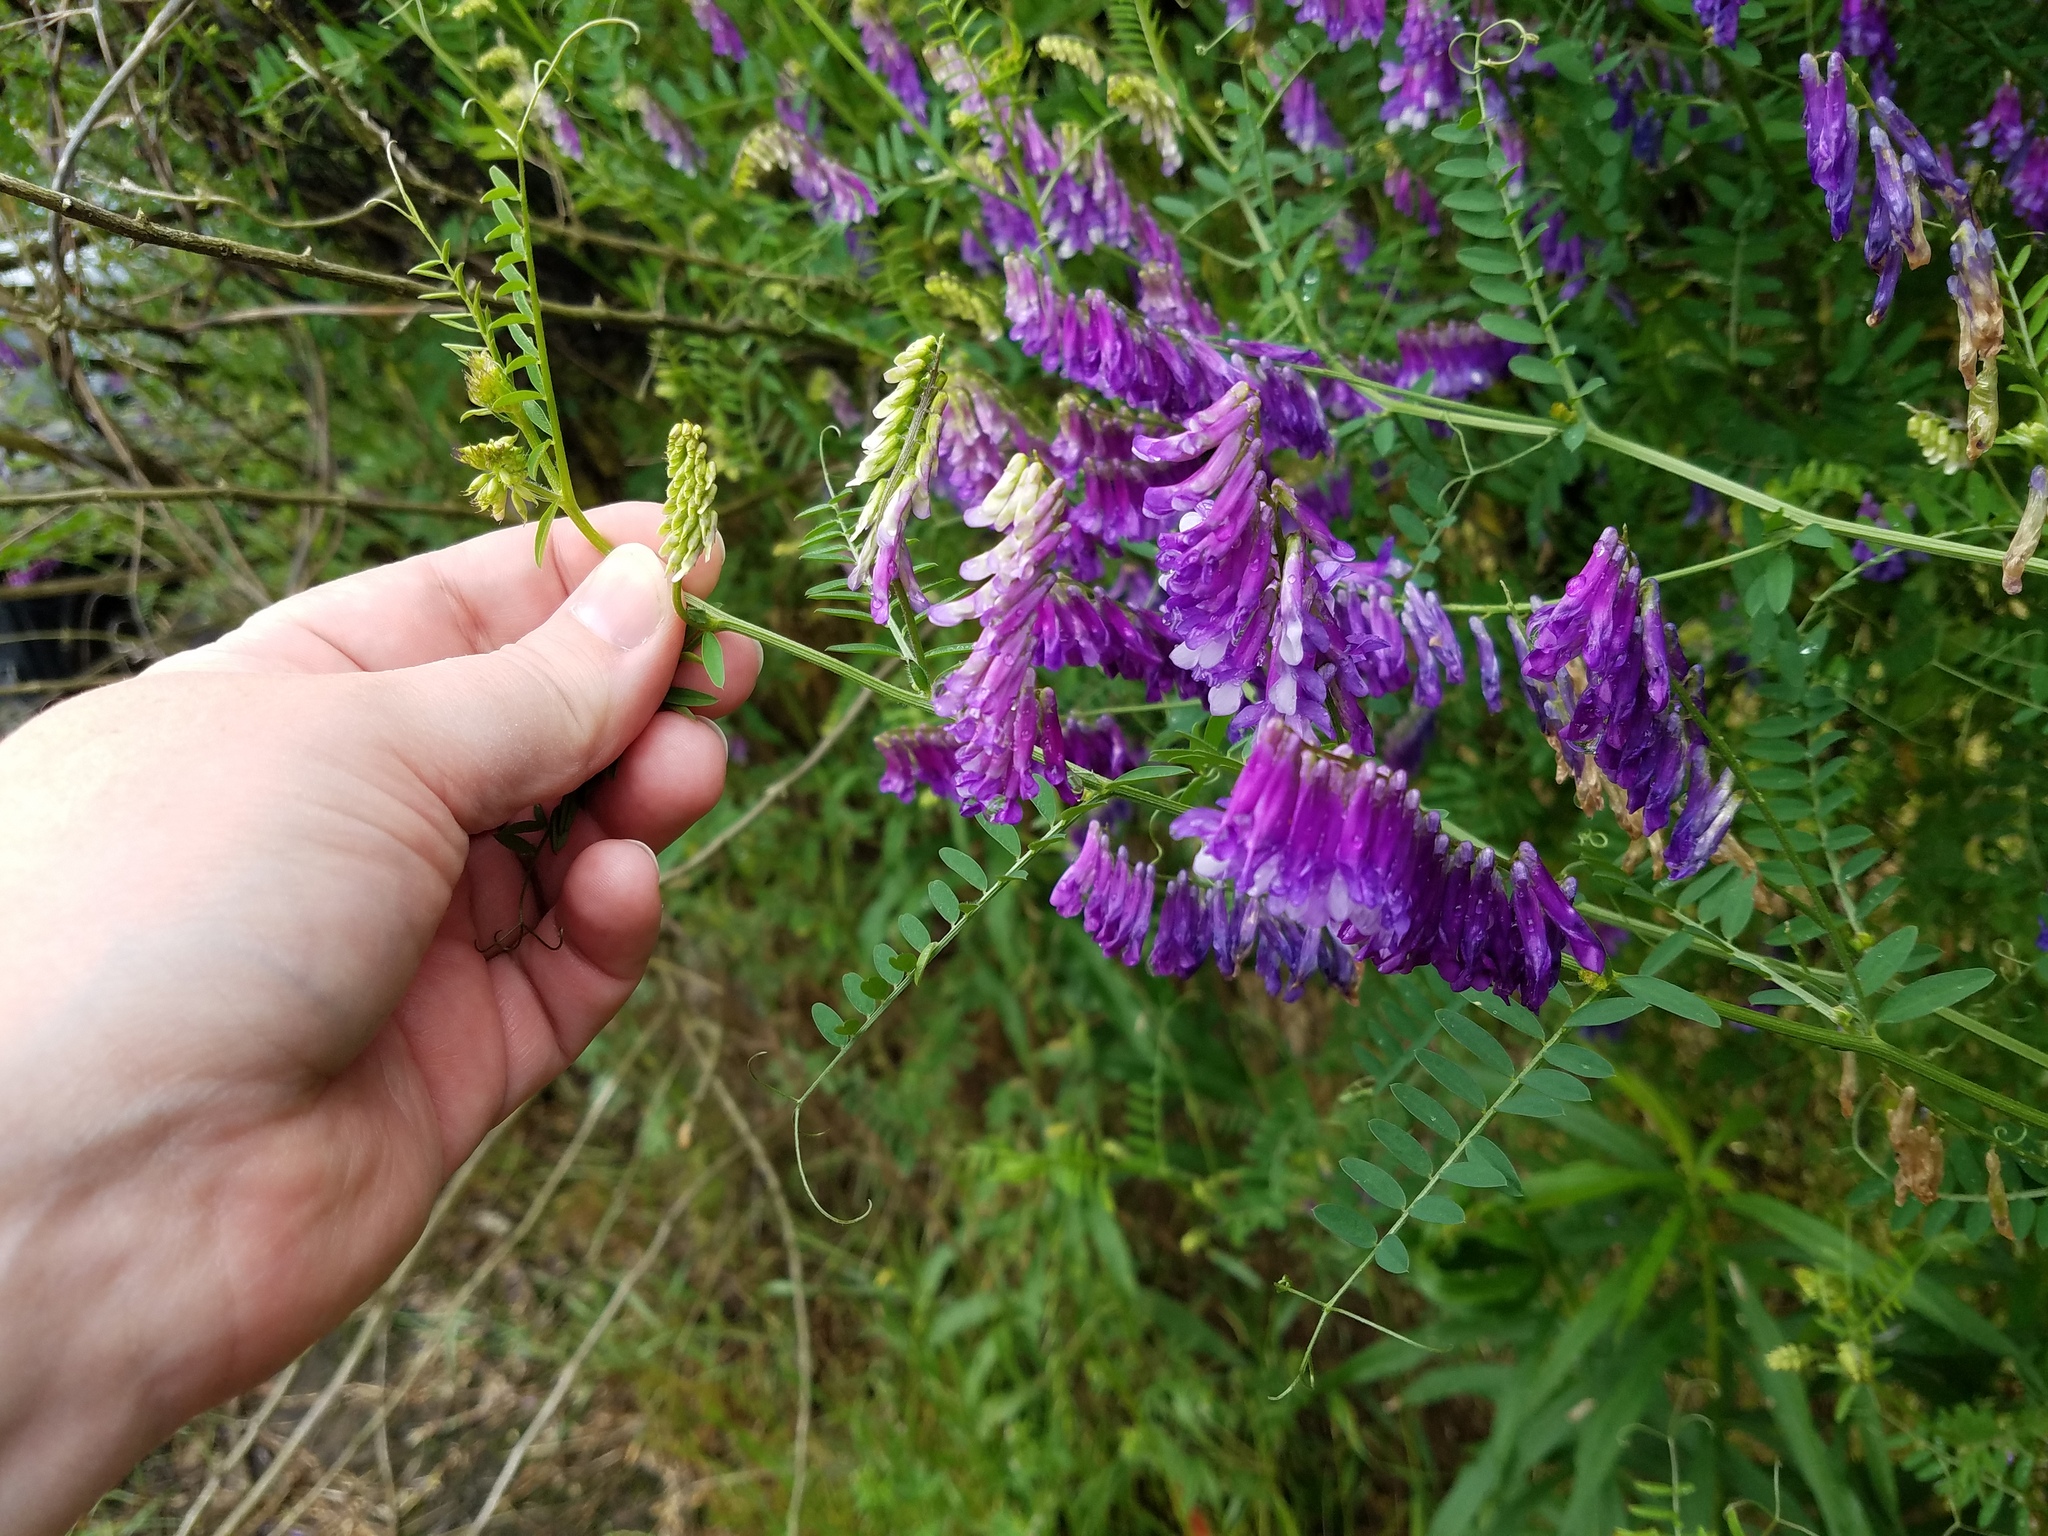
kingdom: Plantae
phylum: Tracheophyta
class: Magnoliopsida
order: Fabales
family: Fabaceae
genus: Vicia
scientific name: Vicia villosa
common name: Fodder vetch
